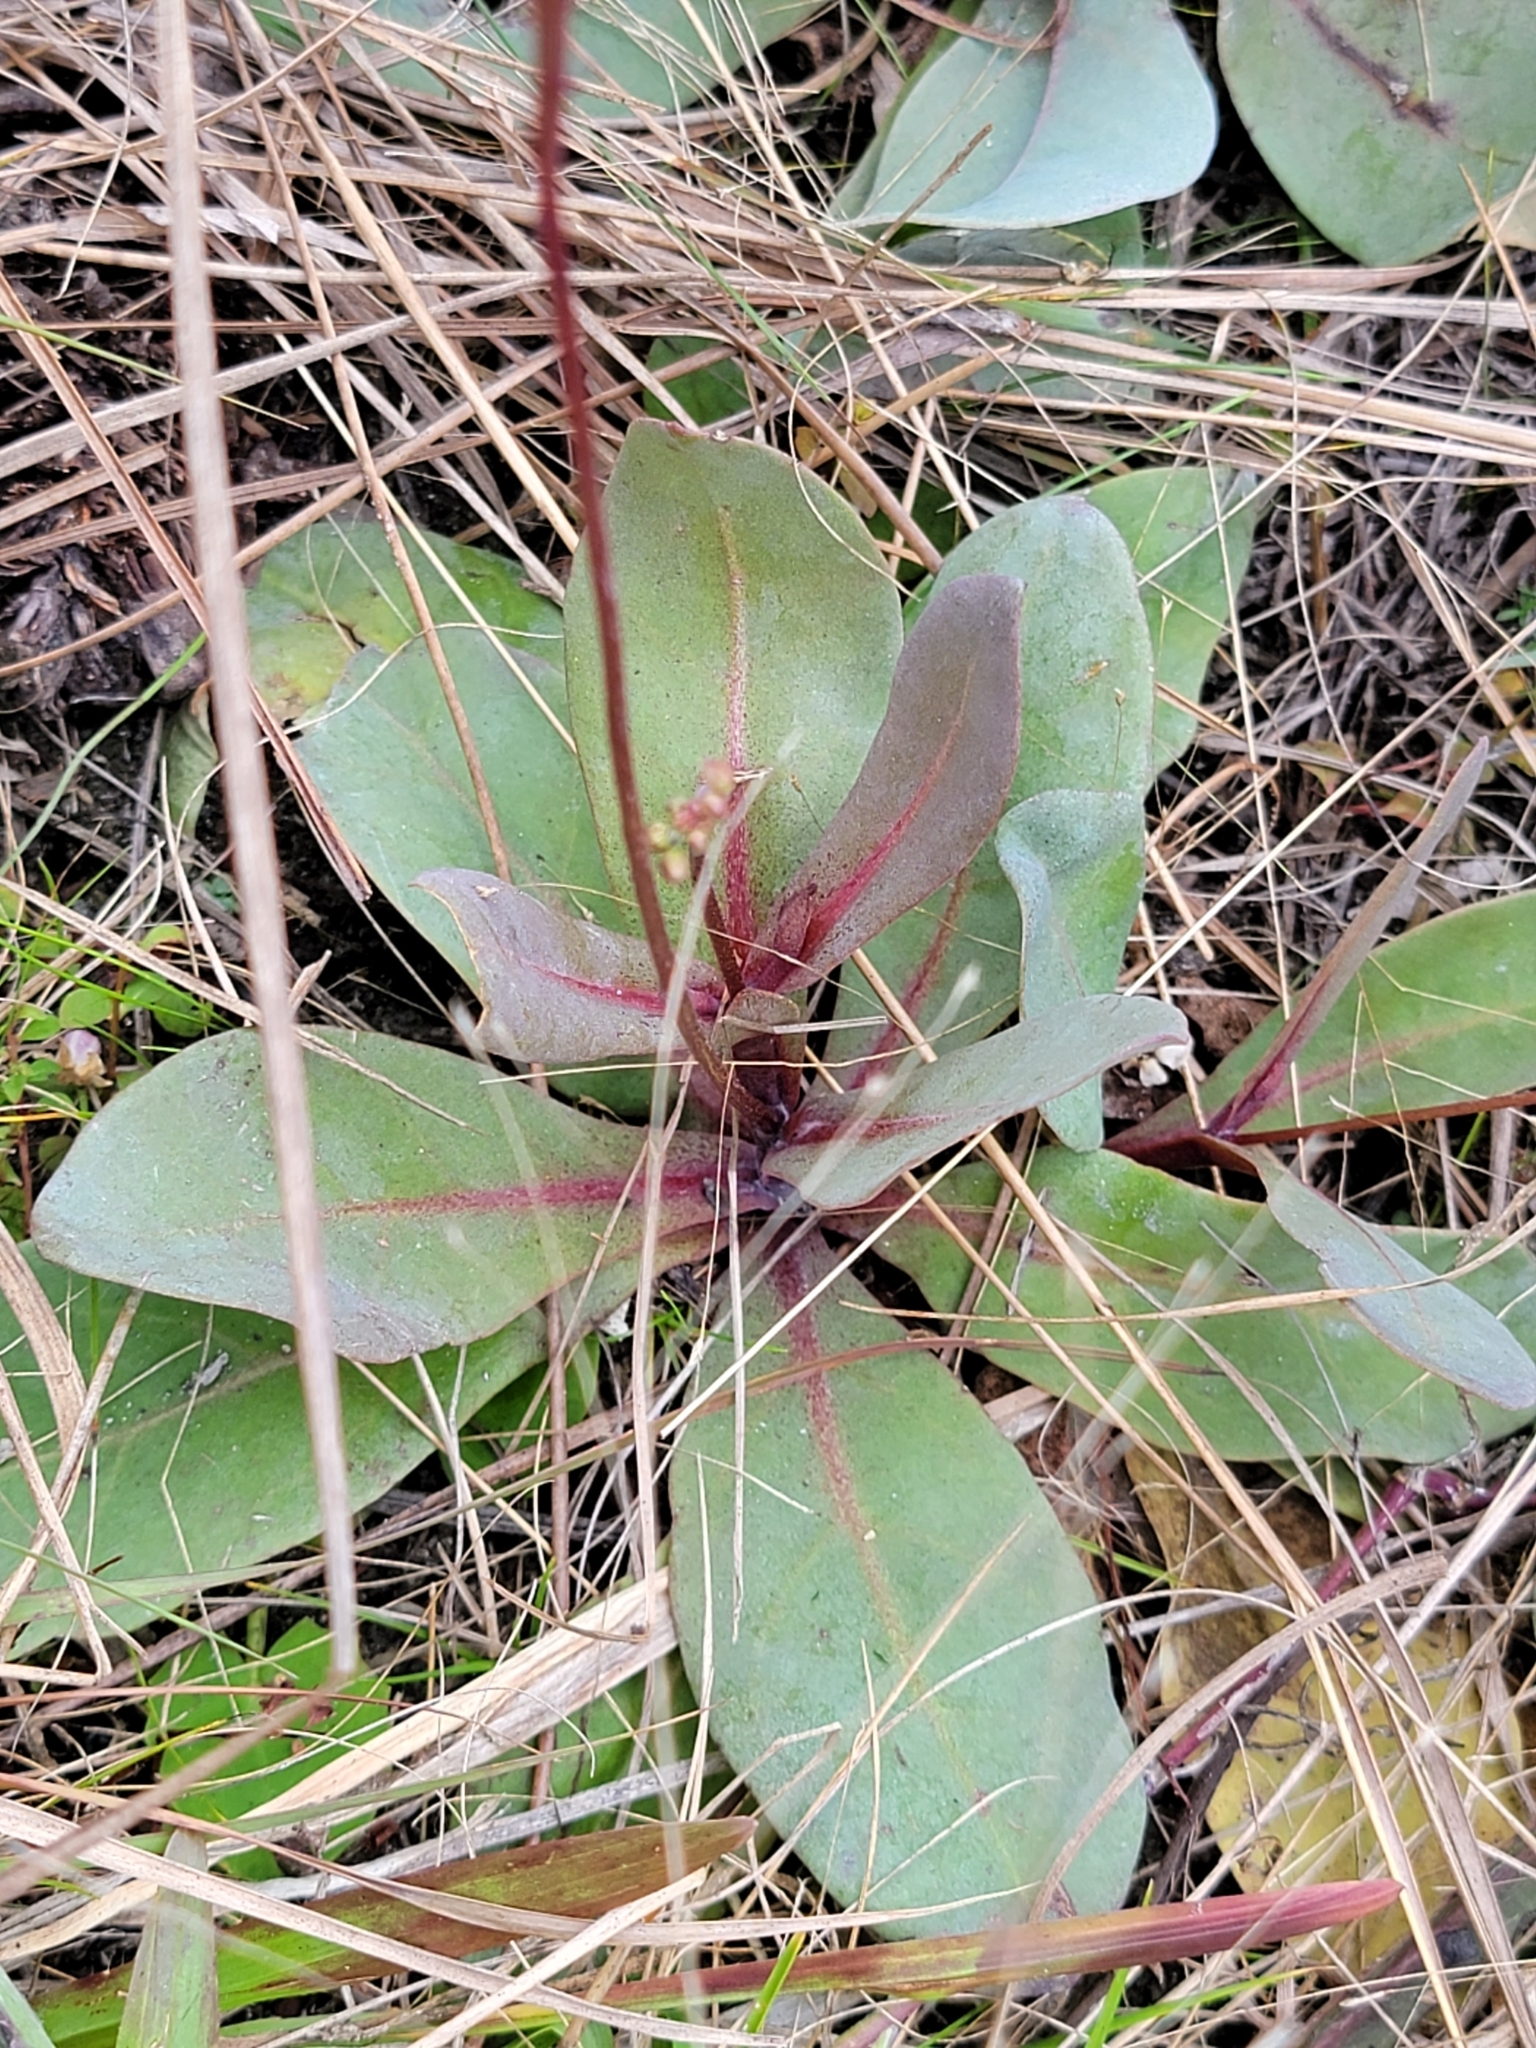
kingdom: Plantae
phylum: Tracheophyta
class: Magnoliopsida
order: Ericales
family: Primulaceae
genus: Samolus
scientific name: Samolus ebracteatus
